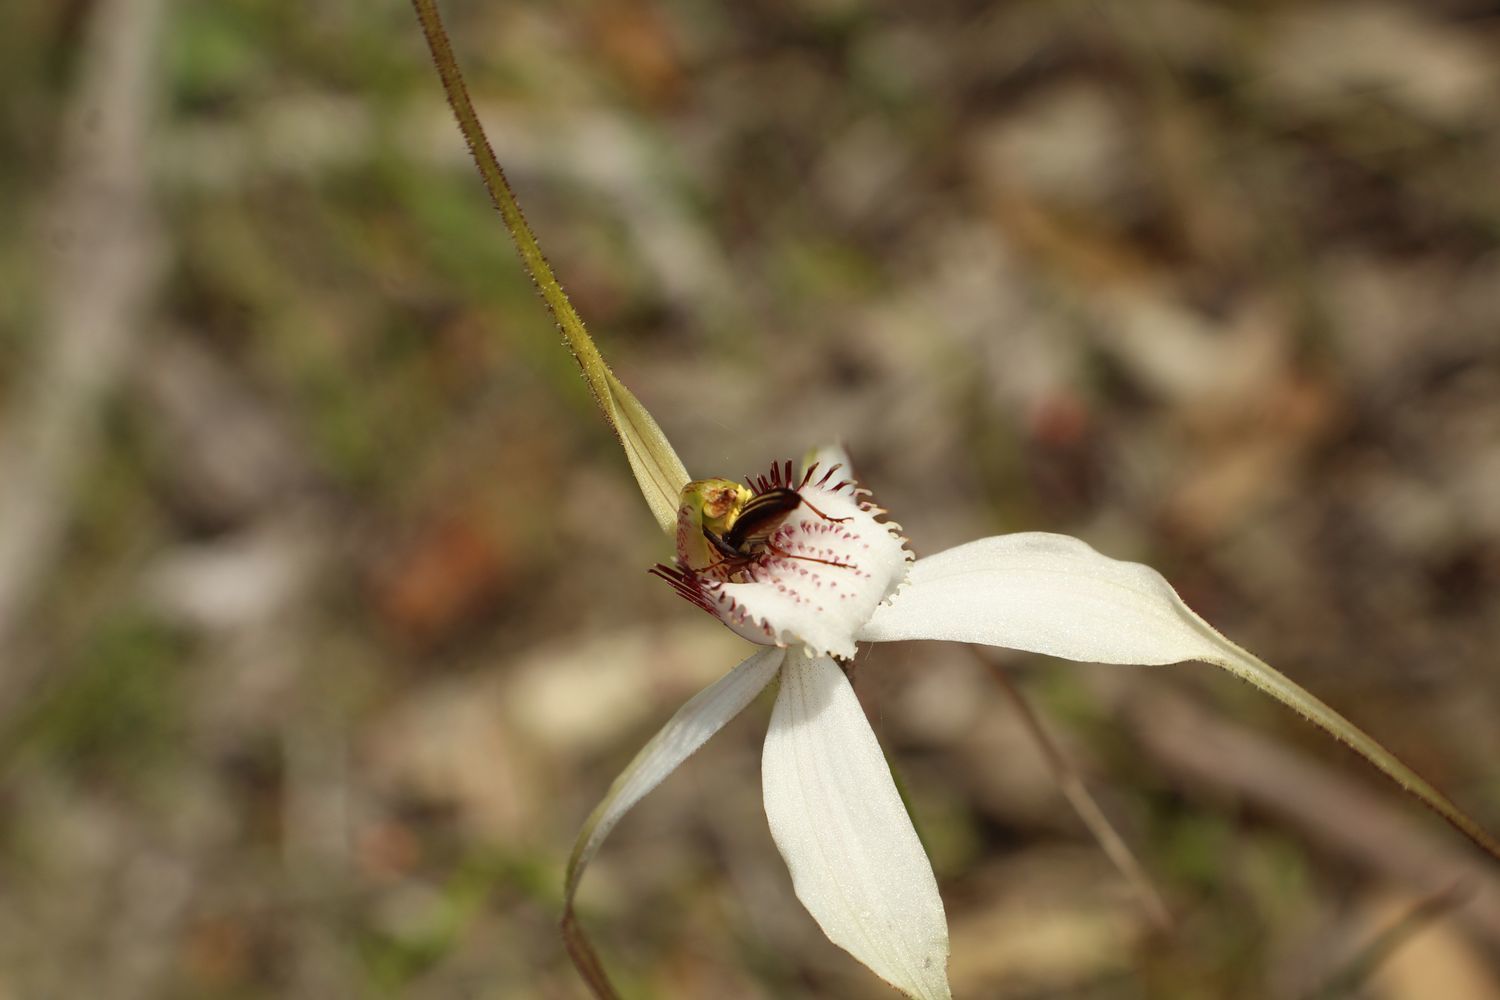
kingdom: Plantae
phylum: Tracheophyta
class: Liliopsida
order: Asparagales
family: Orchidaceae
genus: Caladenia
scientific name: Caladenia longicauda
